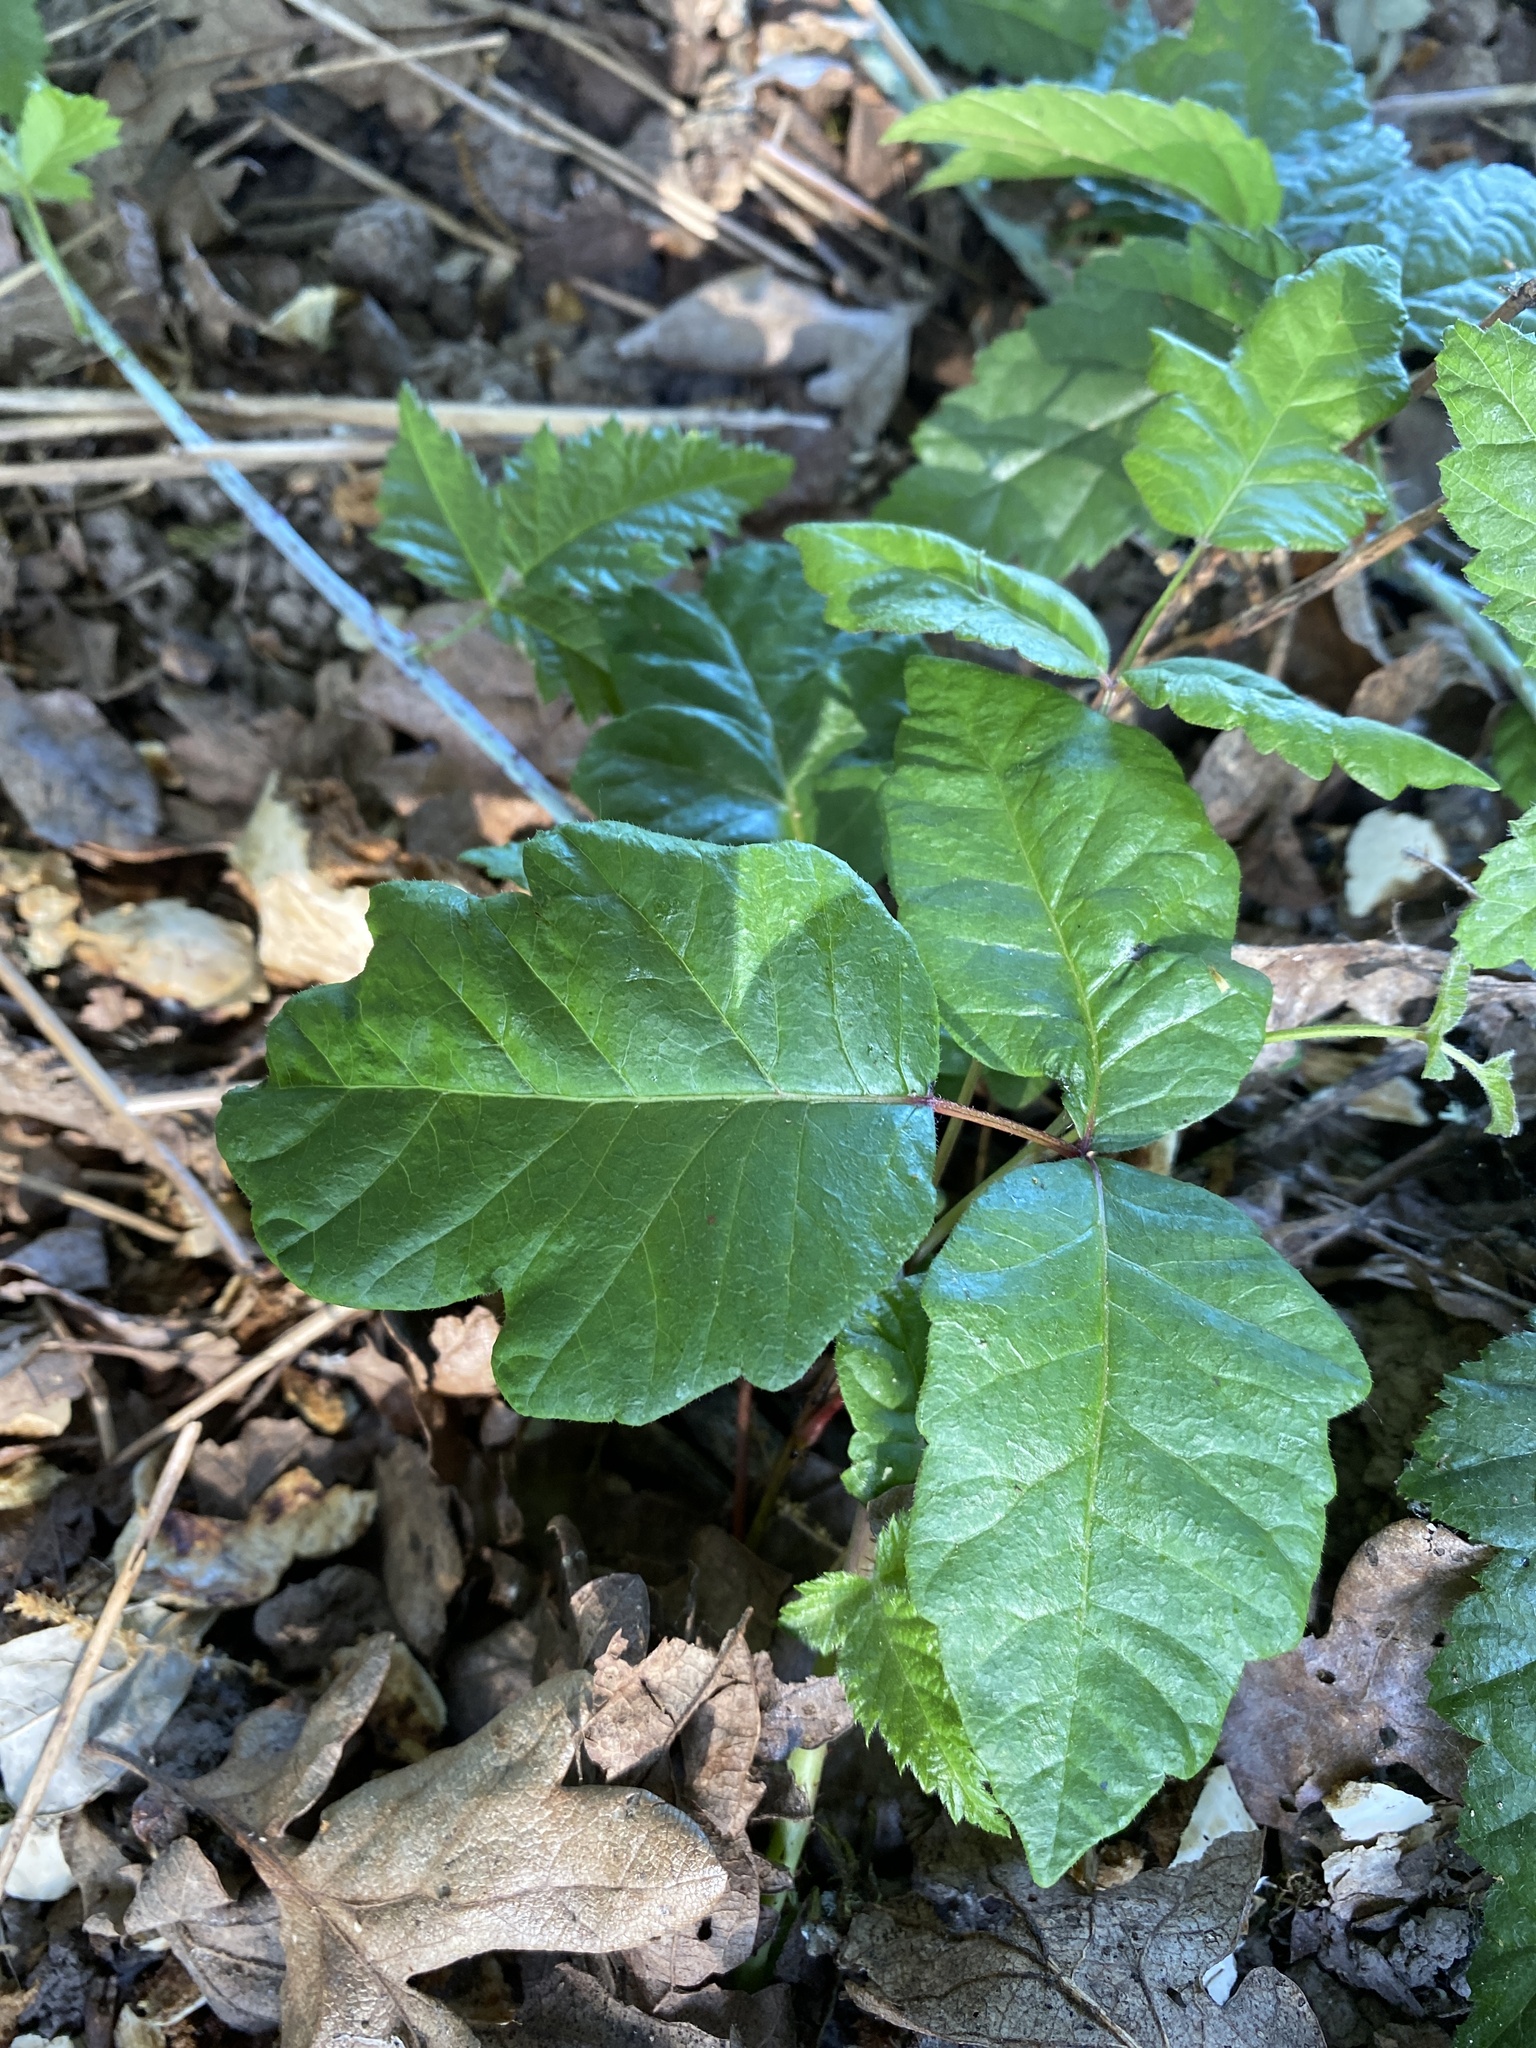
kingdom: Plantae
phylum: Tracheophyta
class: Magnoliopsida
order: Sapindales
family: Anacardiaceae
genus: Toxicodendron
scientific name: Toxicodendron diversilobum
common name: Pacific poison-oak
